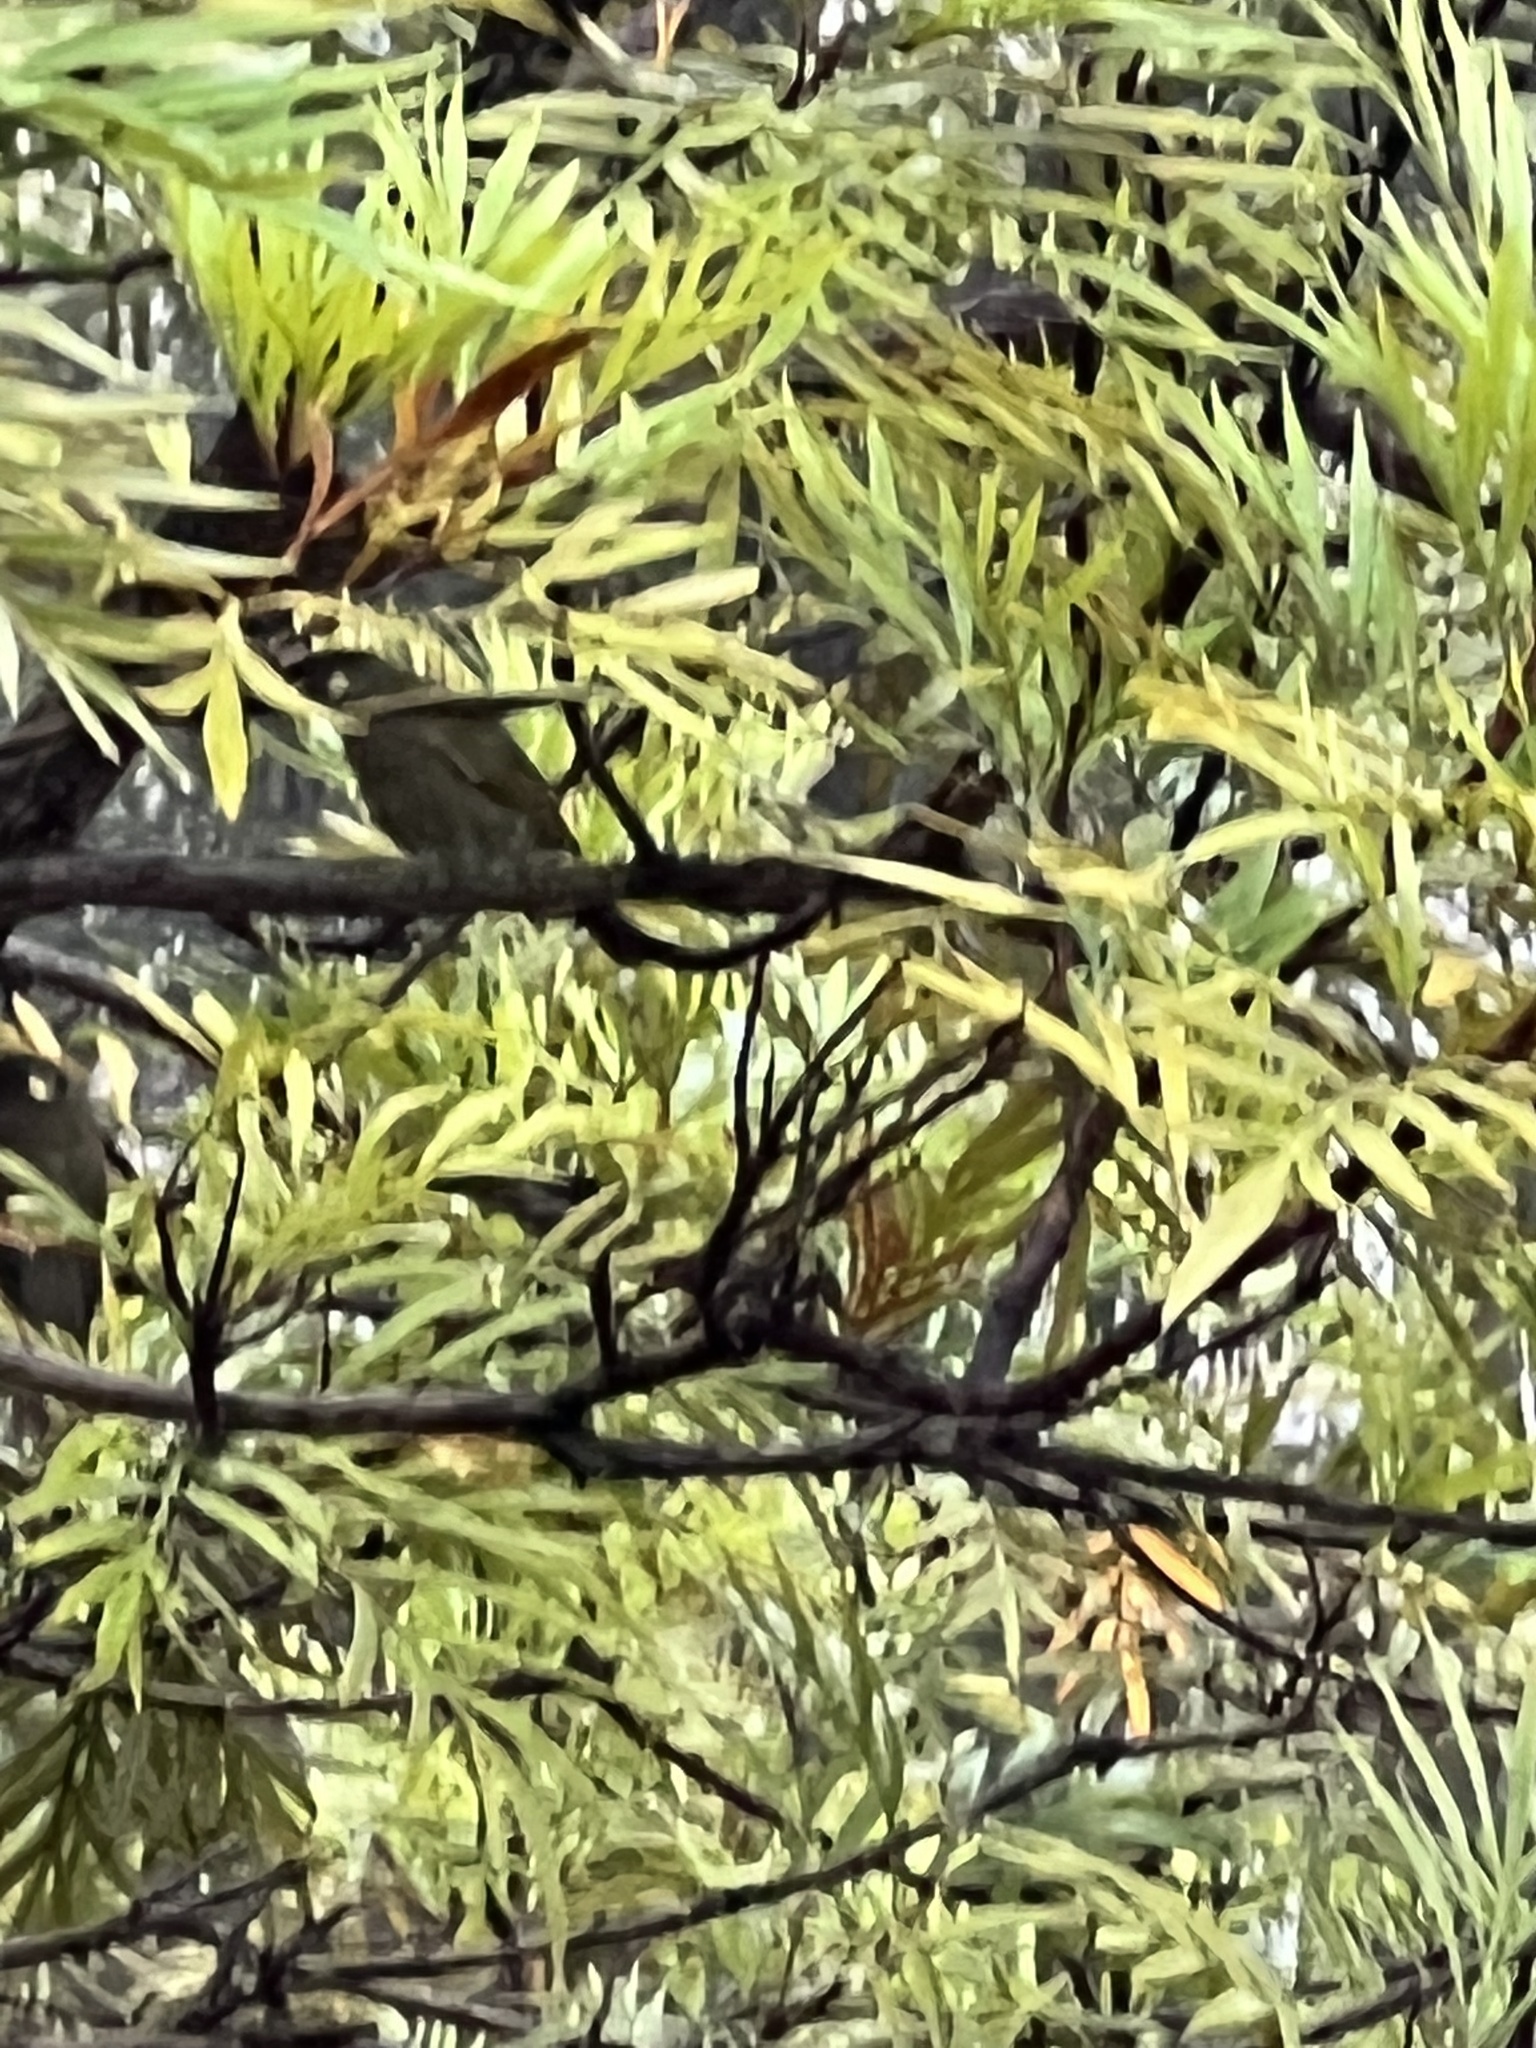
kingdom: Animalia
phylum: Chordata
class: Aves
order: Passeriformes
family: Meliphagidae
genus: Meliphaga
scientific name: Meliphaga lewinii
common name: Lewin's honeyeater
